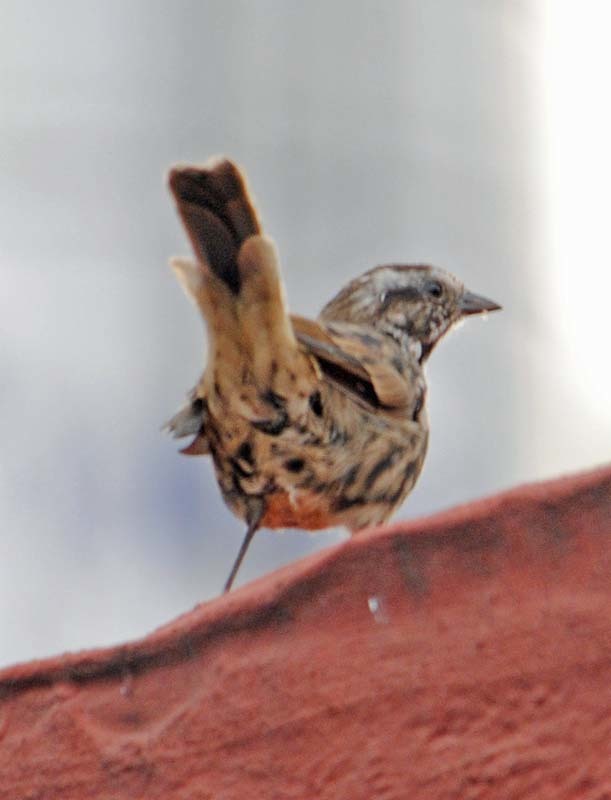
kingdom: Animalia
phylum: Chordata
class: Aves
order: Passeriformes
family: Passerellidae
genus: Melospiza
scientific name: Melospiza melodia
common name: Song sparrow
